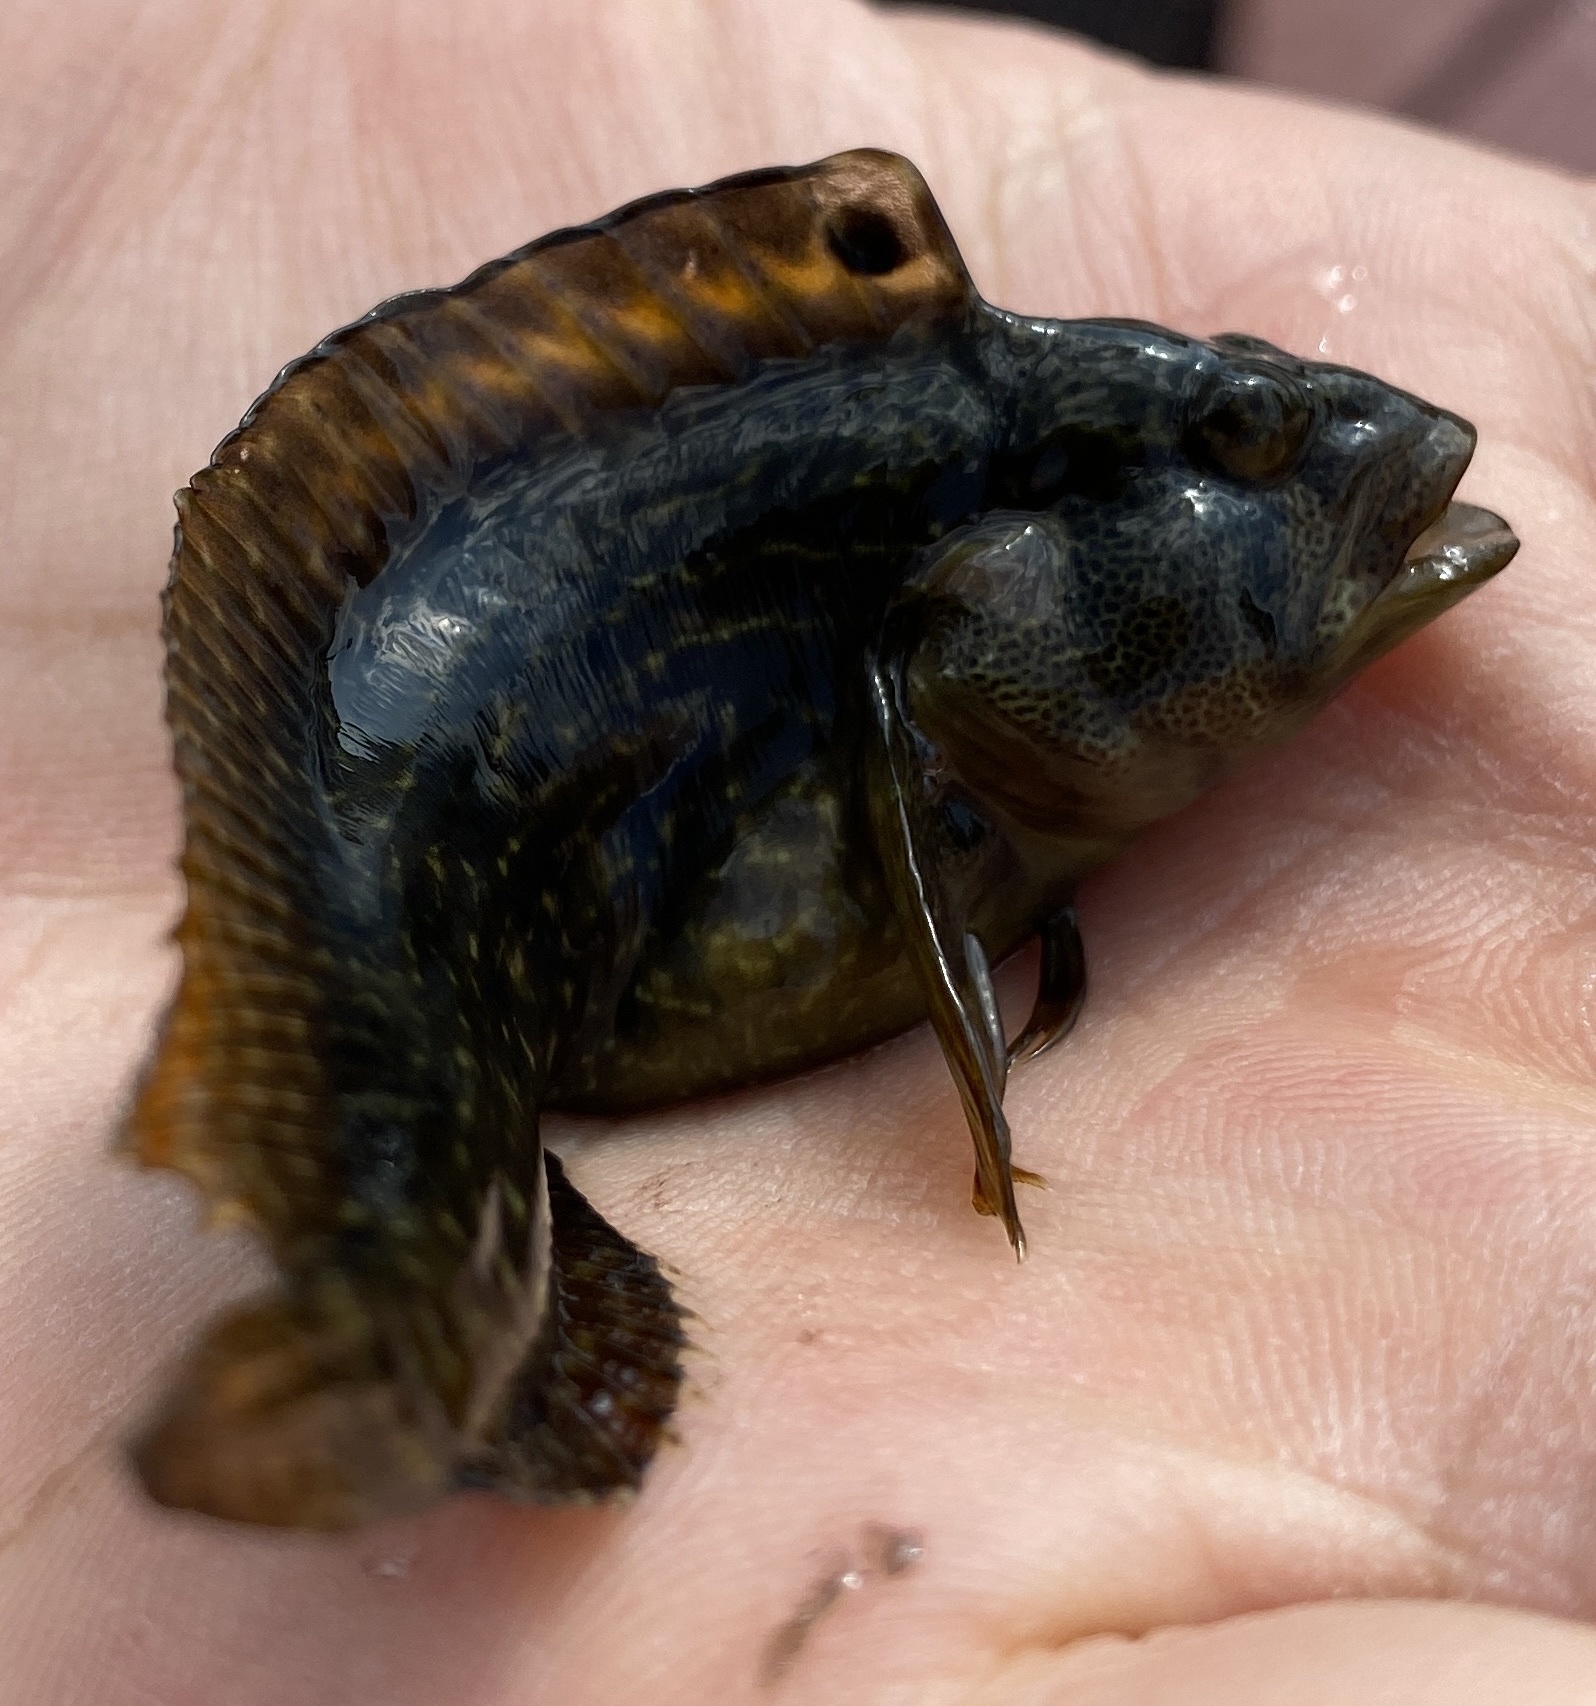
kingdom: Animalia
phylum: Chordata
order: Perciformes
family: Blenniidae
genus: Chasmodes
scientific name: Chasmodes bosquianus
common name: Striped blenny
